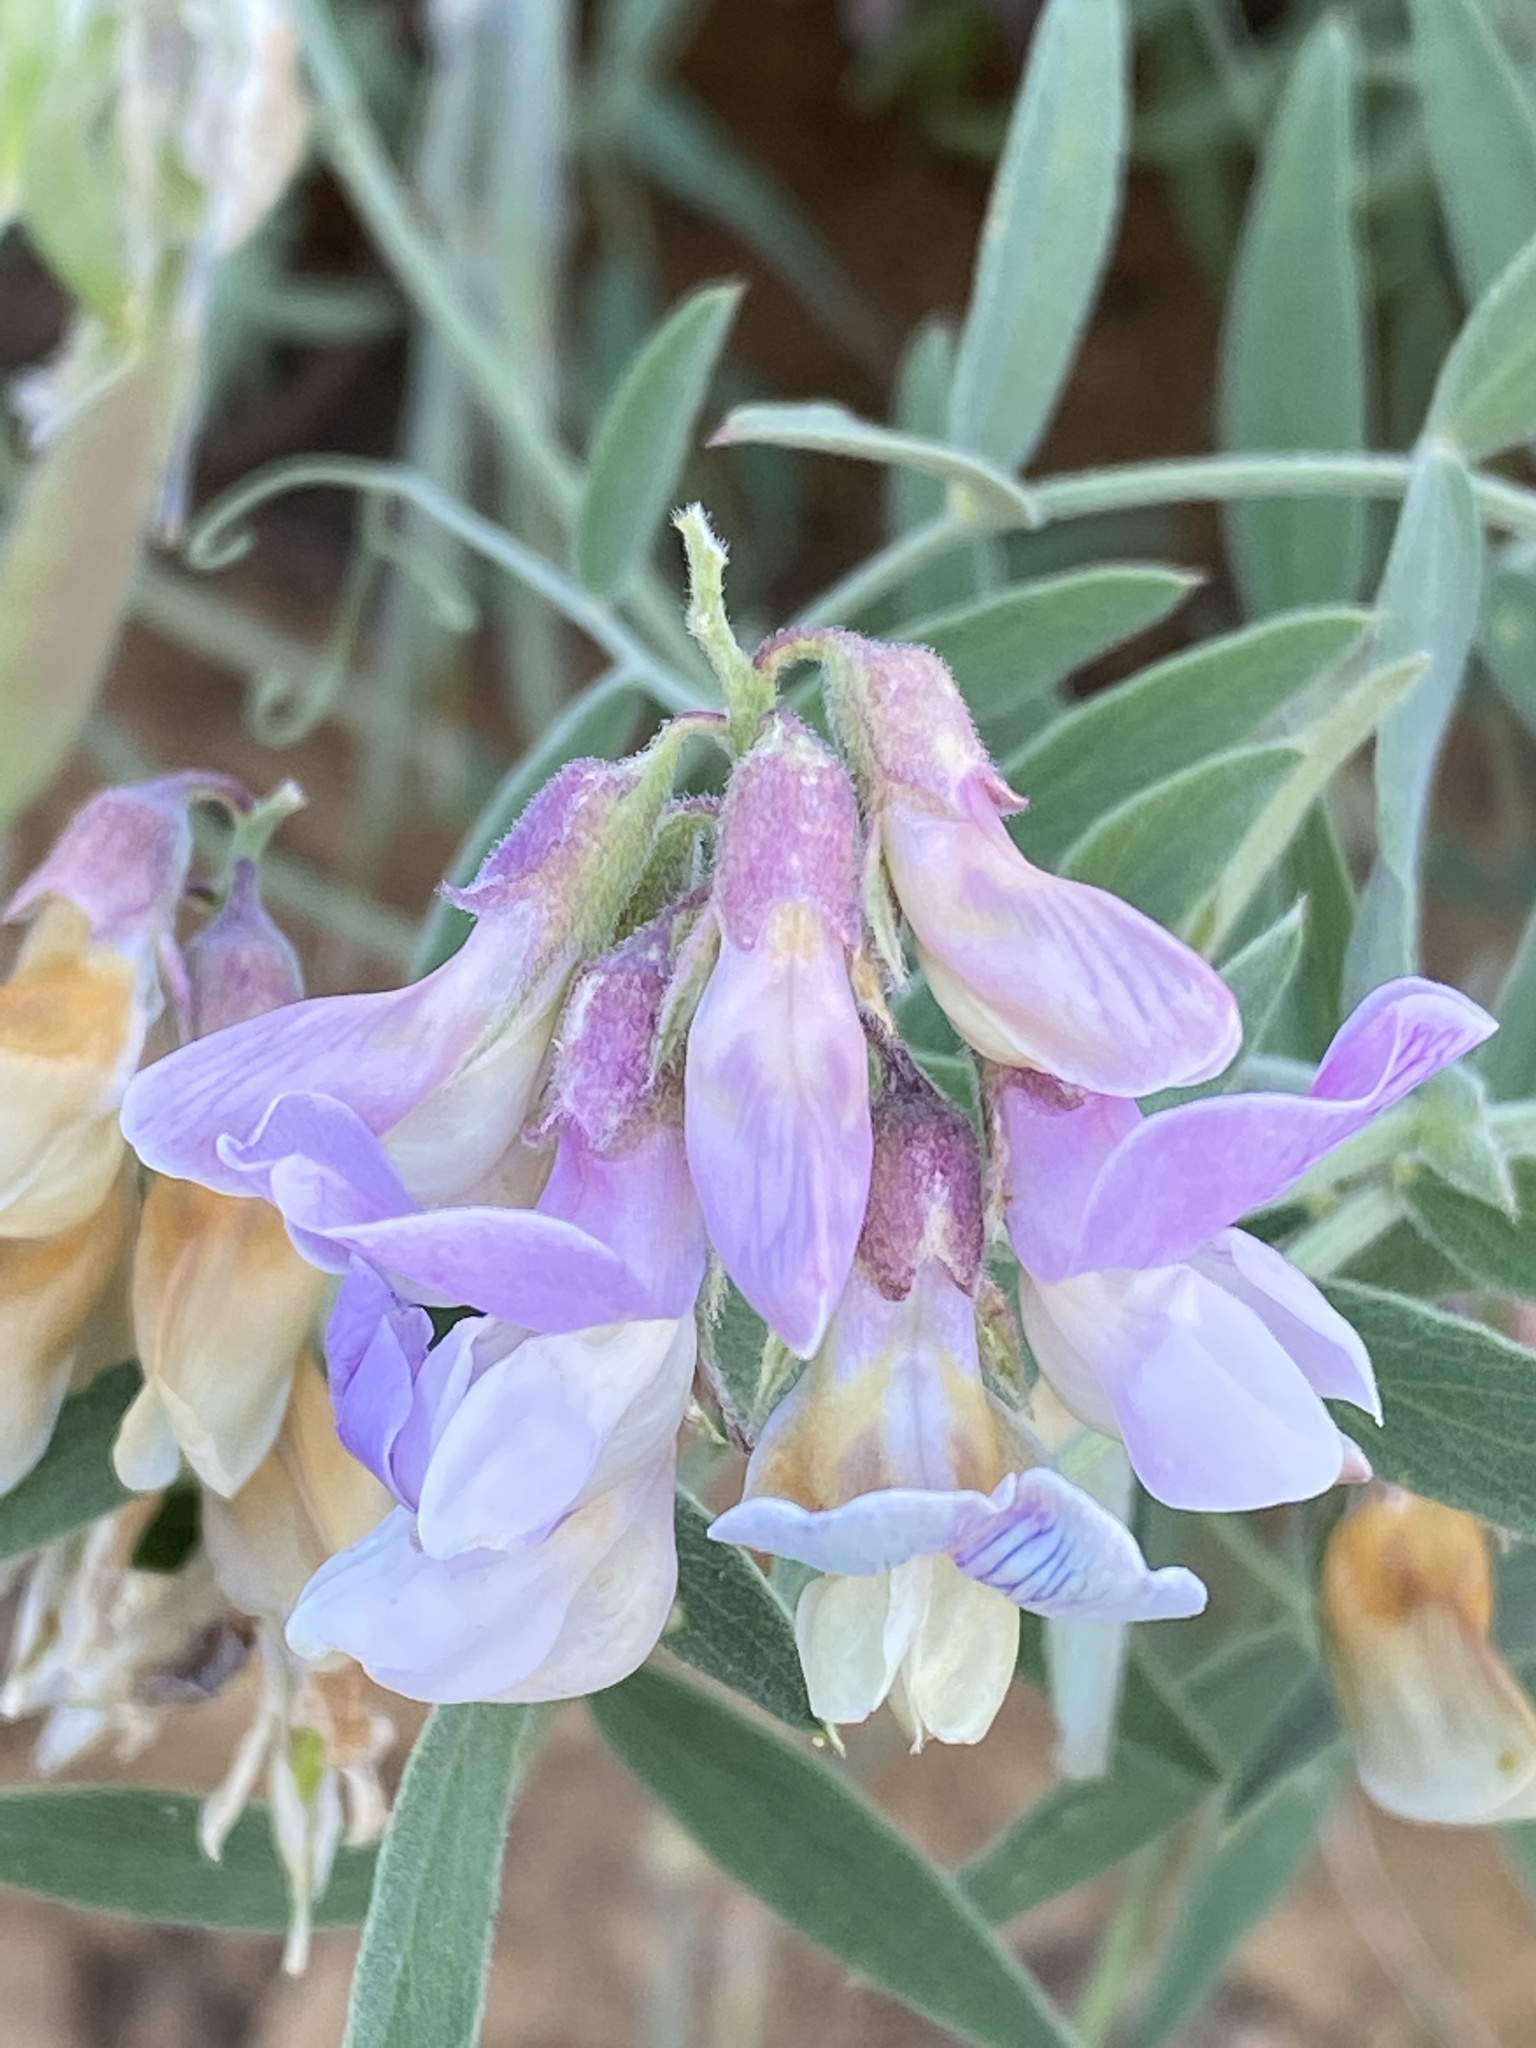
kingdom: Plantae
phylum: Tracheophyta
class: Magnoliopsida
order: Fabales
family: Fabaceae
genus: Lathyrus
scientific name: Lathyrus vestitus
